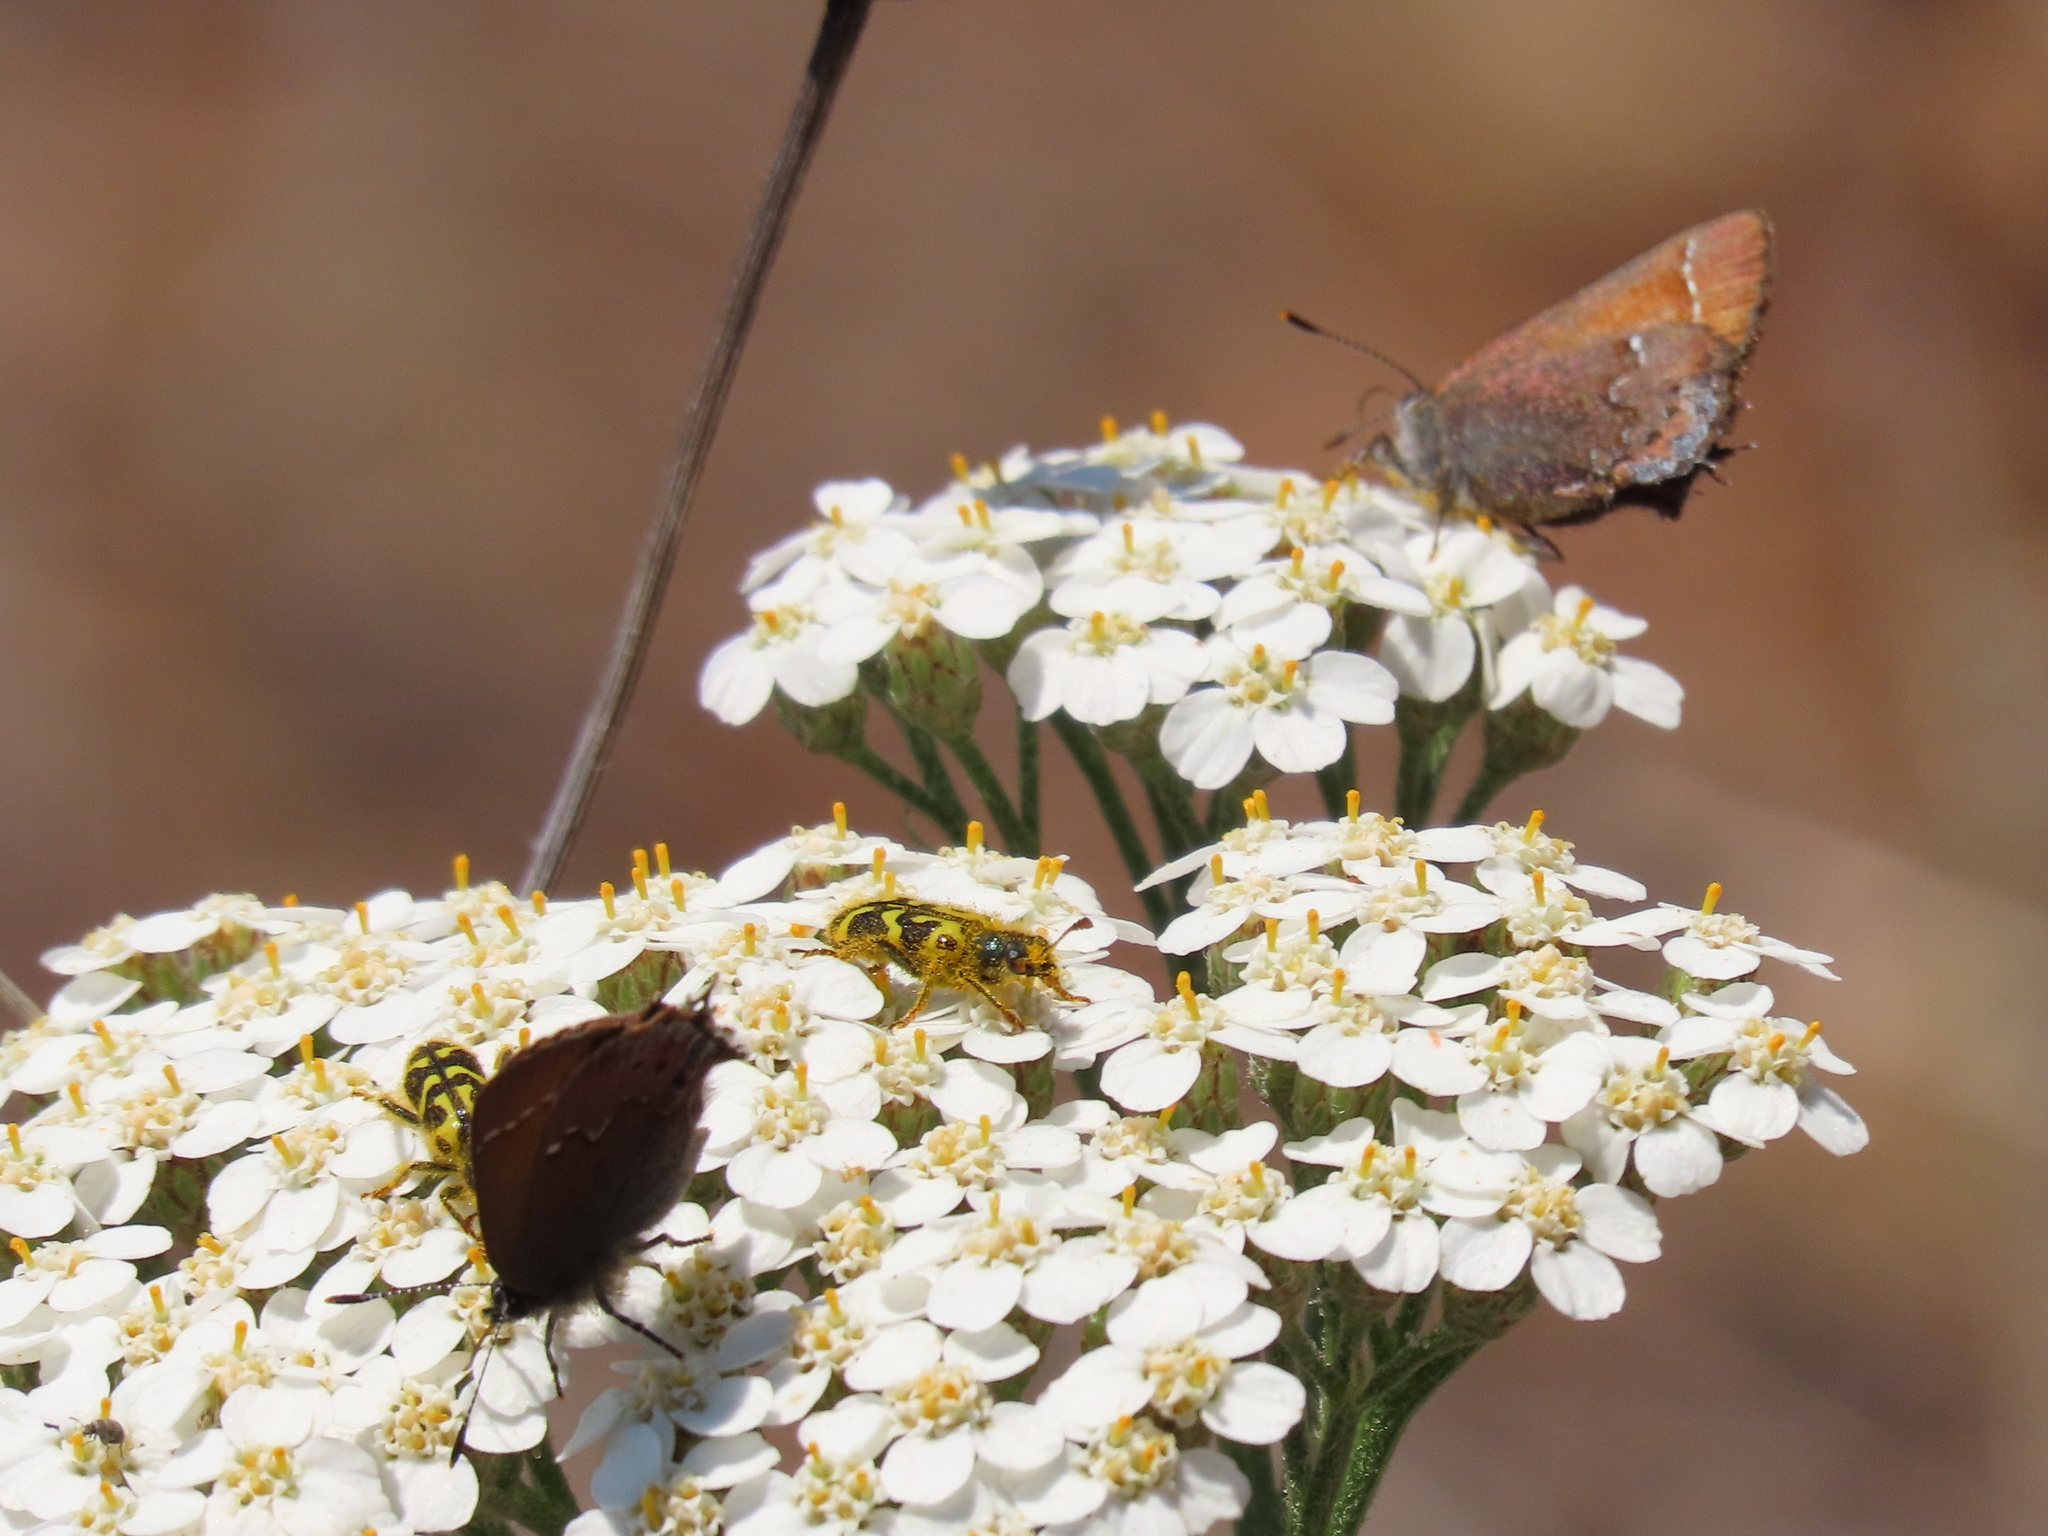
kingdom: Animalia
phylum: Arthropoda
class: Insecta
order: Coleoptera
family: Cleridae
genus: Trichodes
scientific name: Trichodes ornatus
